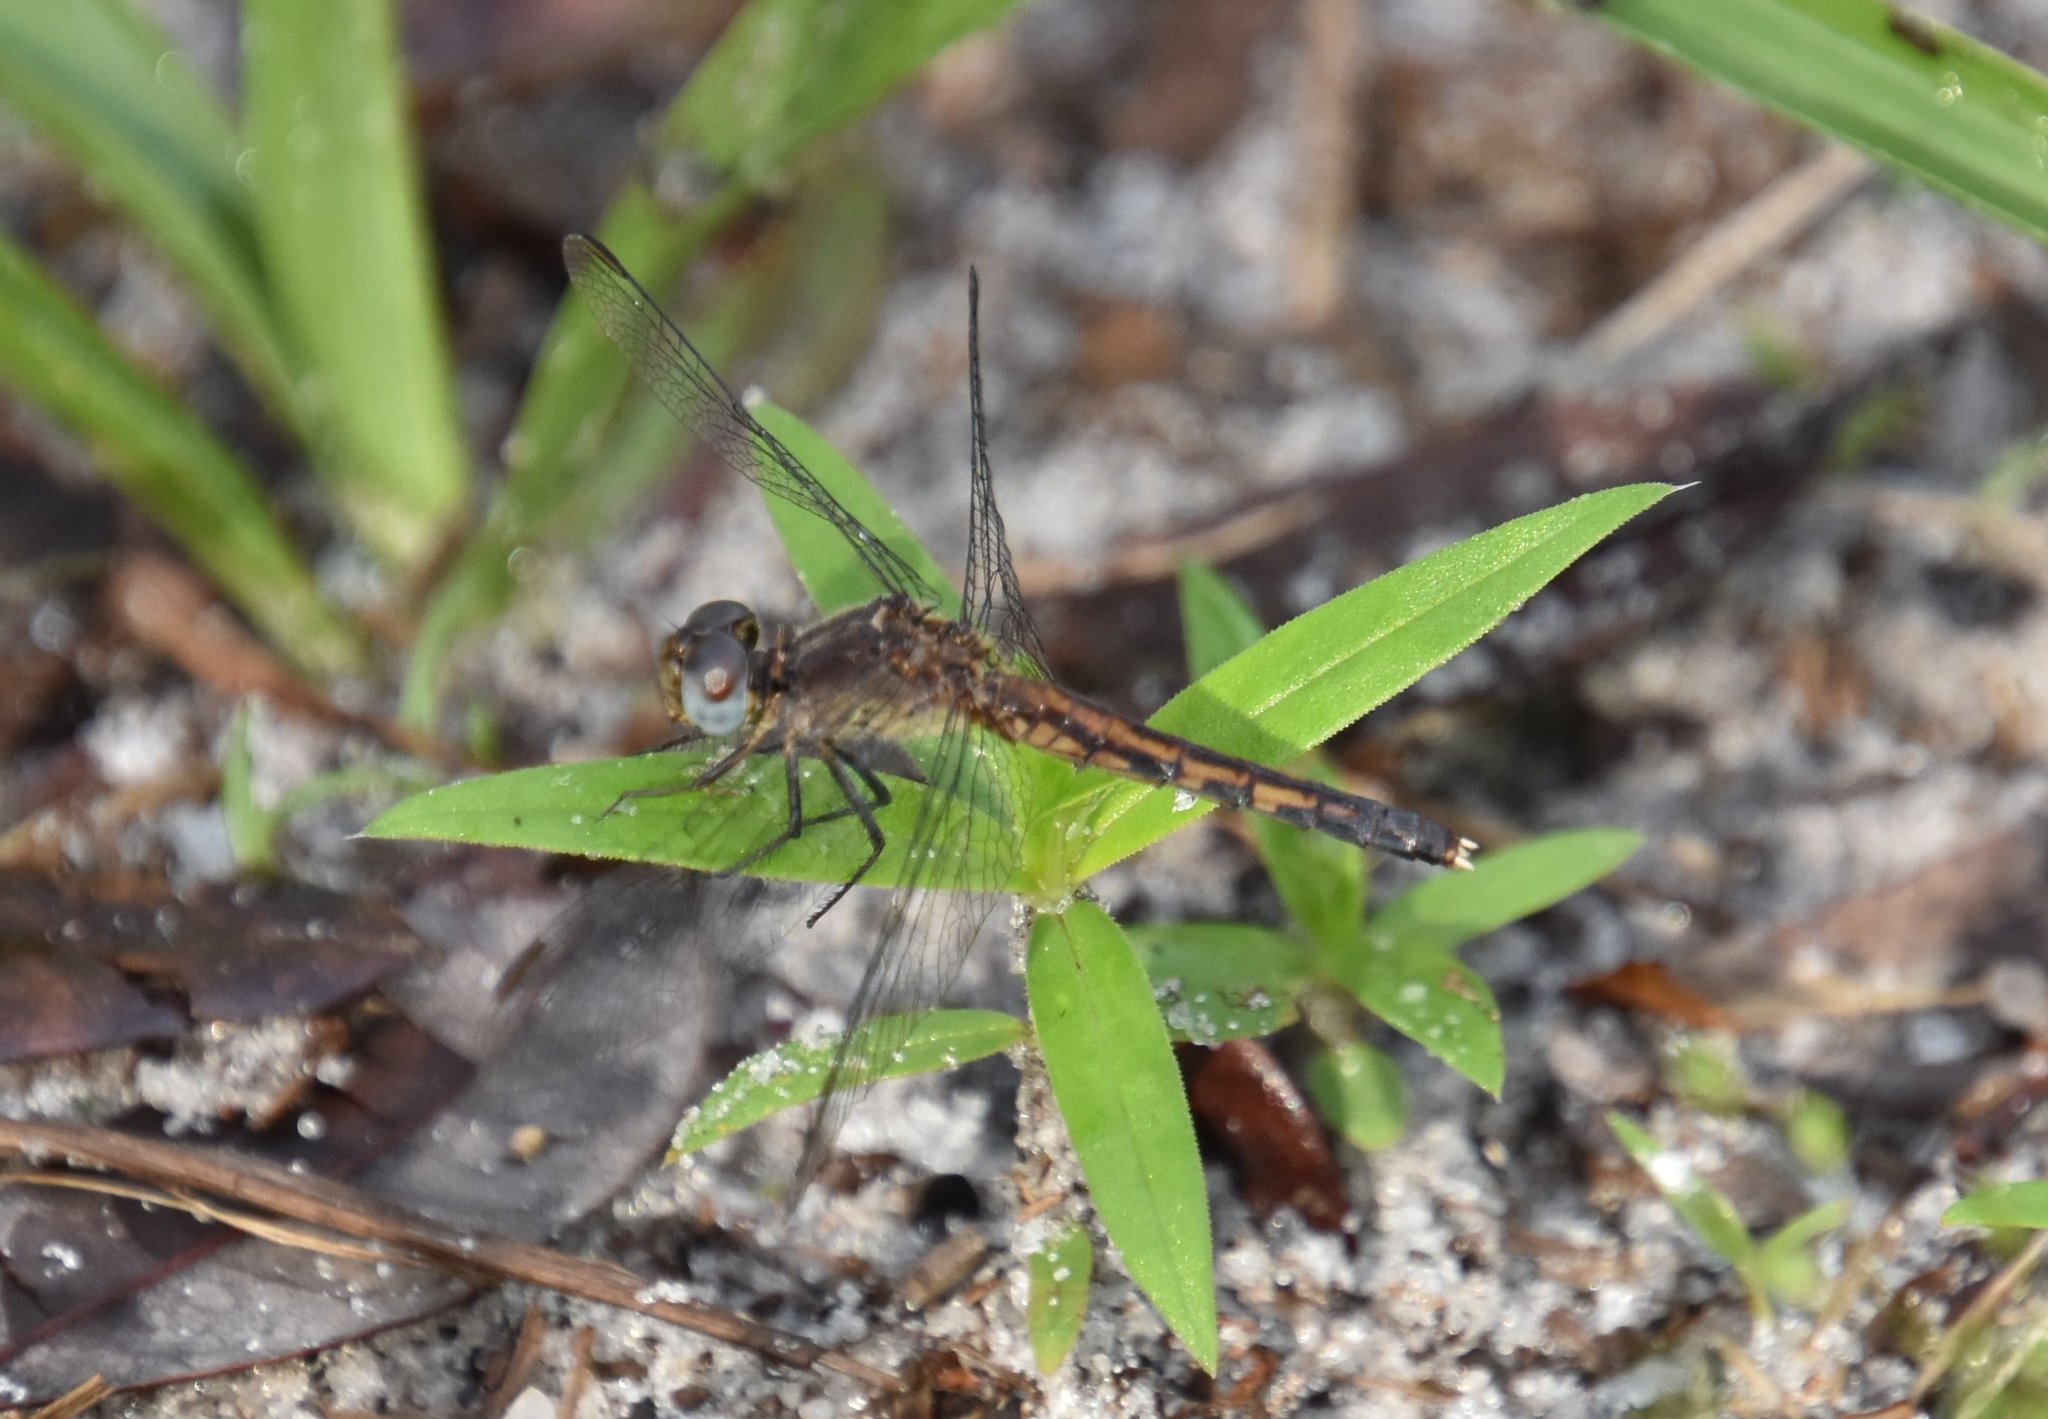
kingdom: Animalia
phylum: Arthropoda
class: Insecta
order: Odonata
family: Libellulidae
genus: Erythrodiplax
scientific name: Erythrodiplax minuscula
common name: Little blue dragonlet
